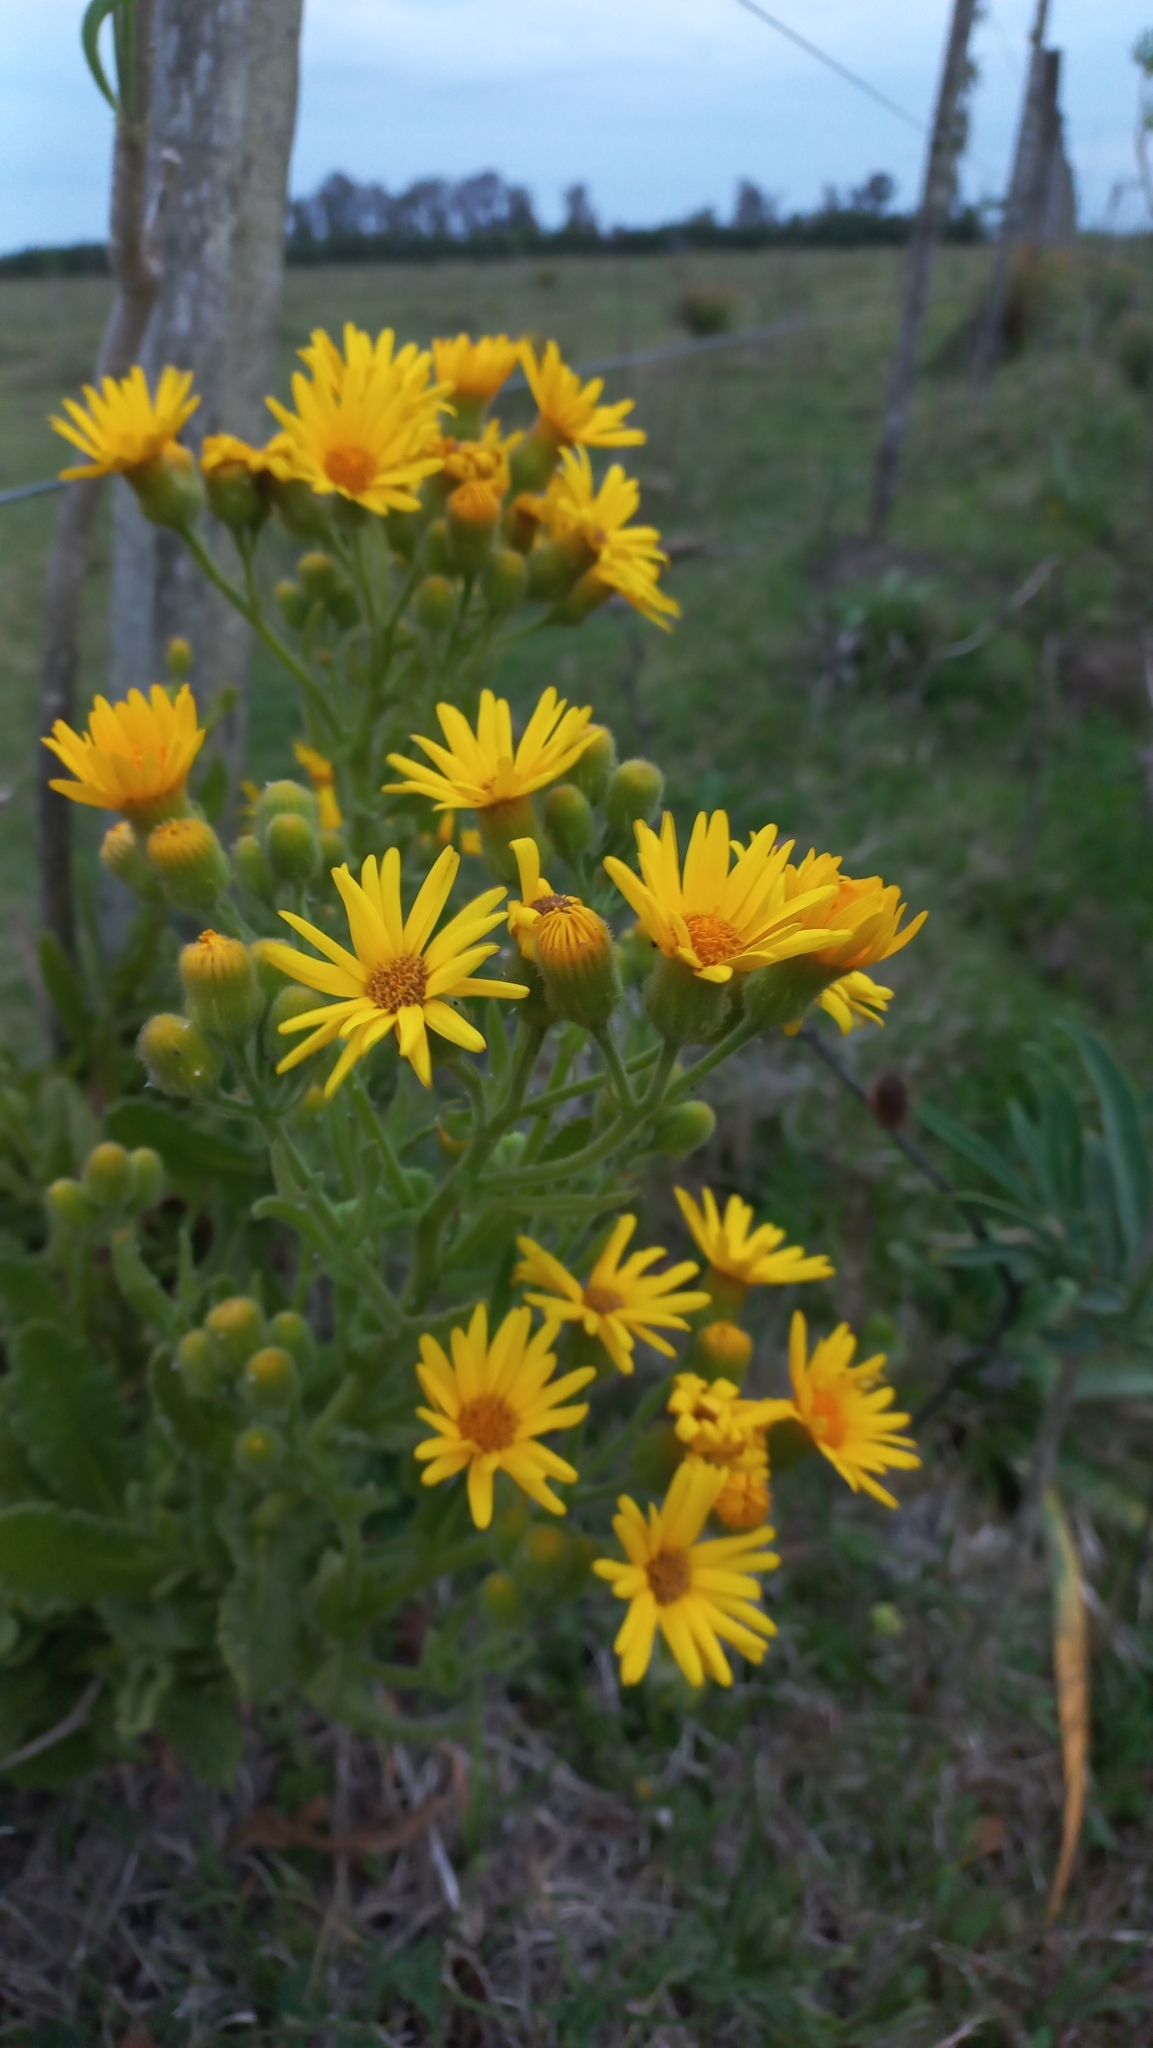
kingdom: Plantae
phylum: Tracheophyta
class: Magnoliopsida
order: Asterales
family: Asteraceae
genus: Senecio
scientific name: Senecio selloi
